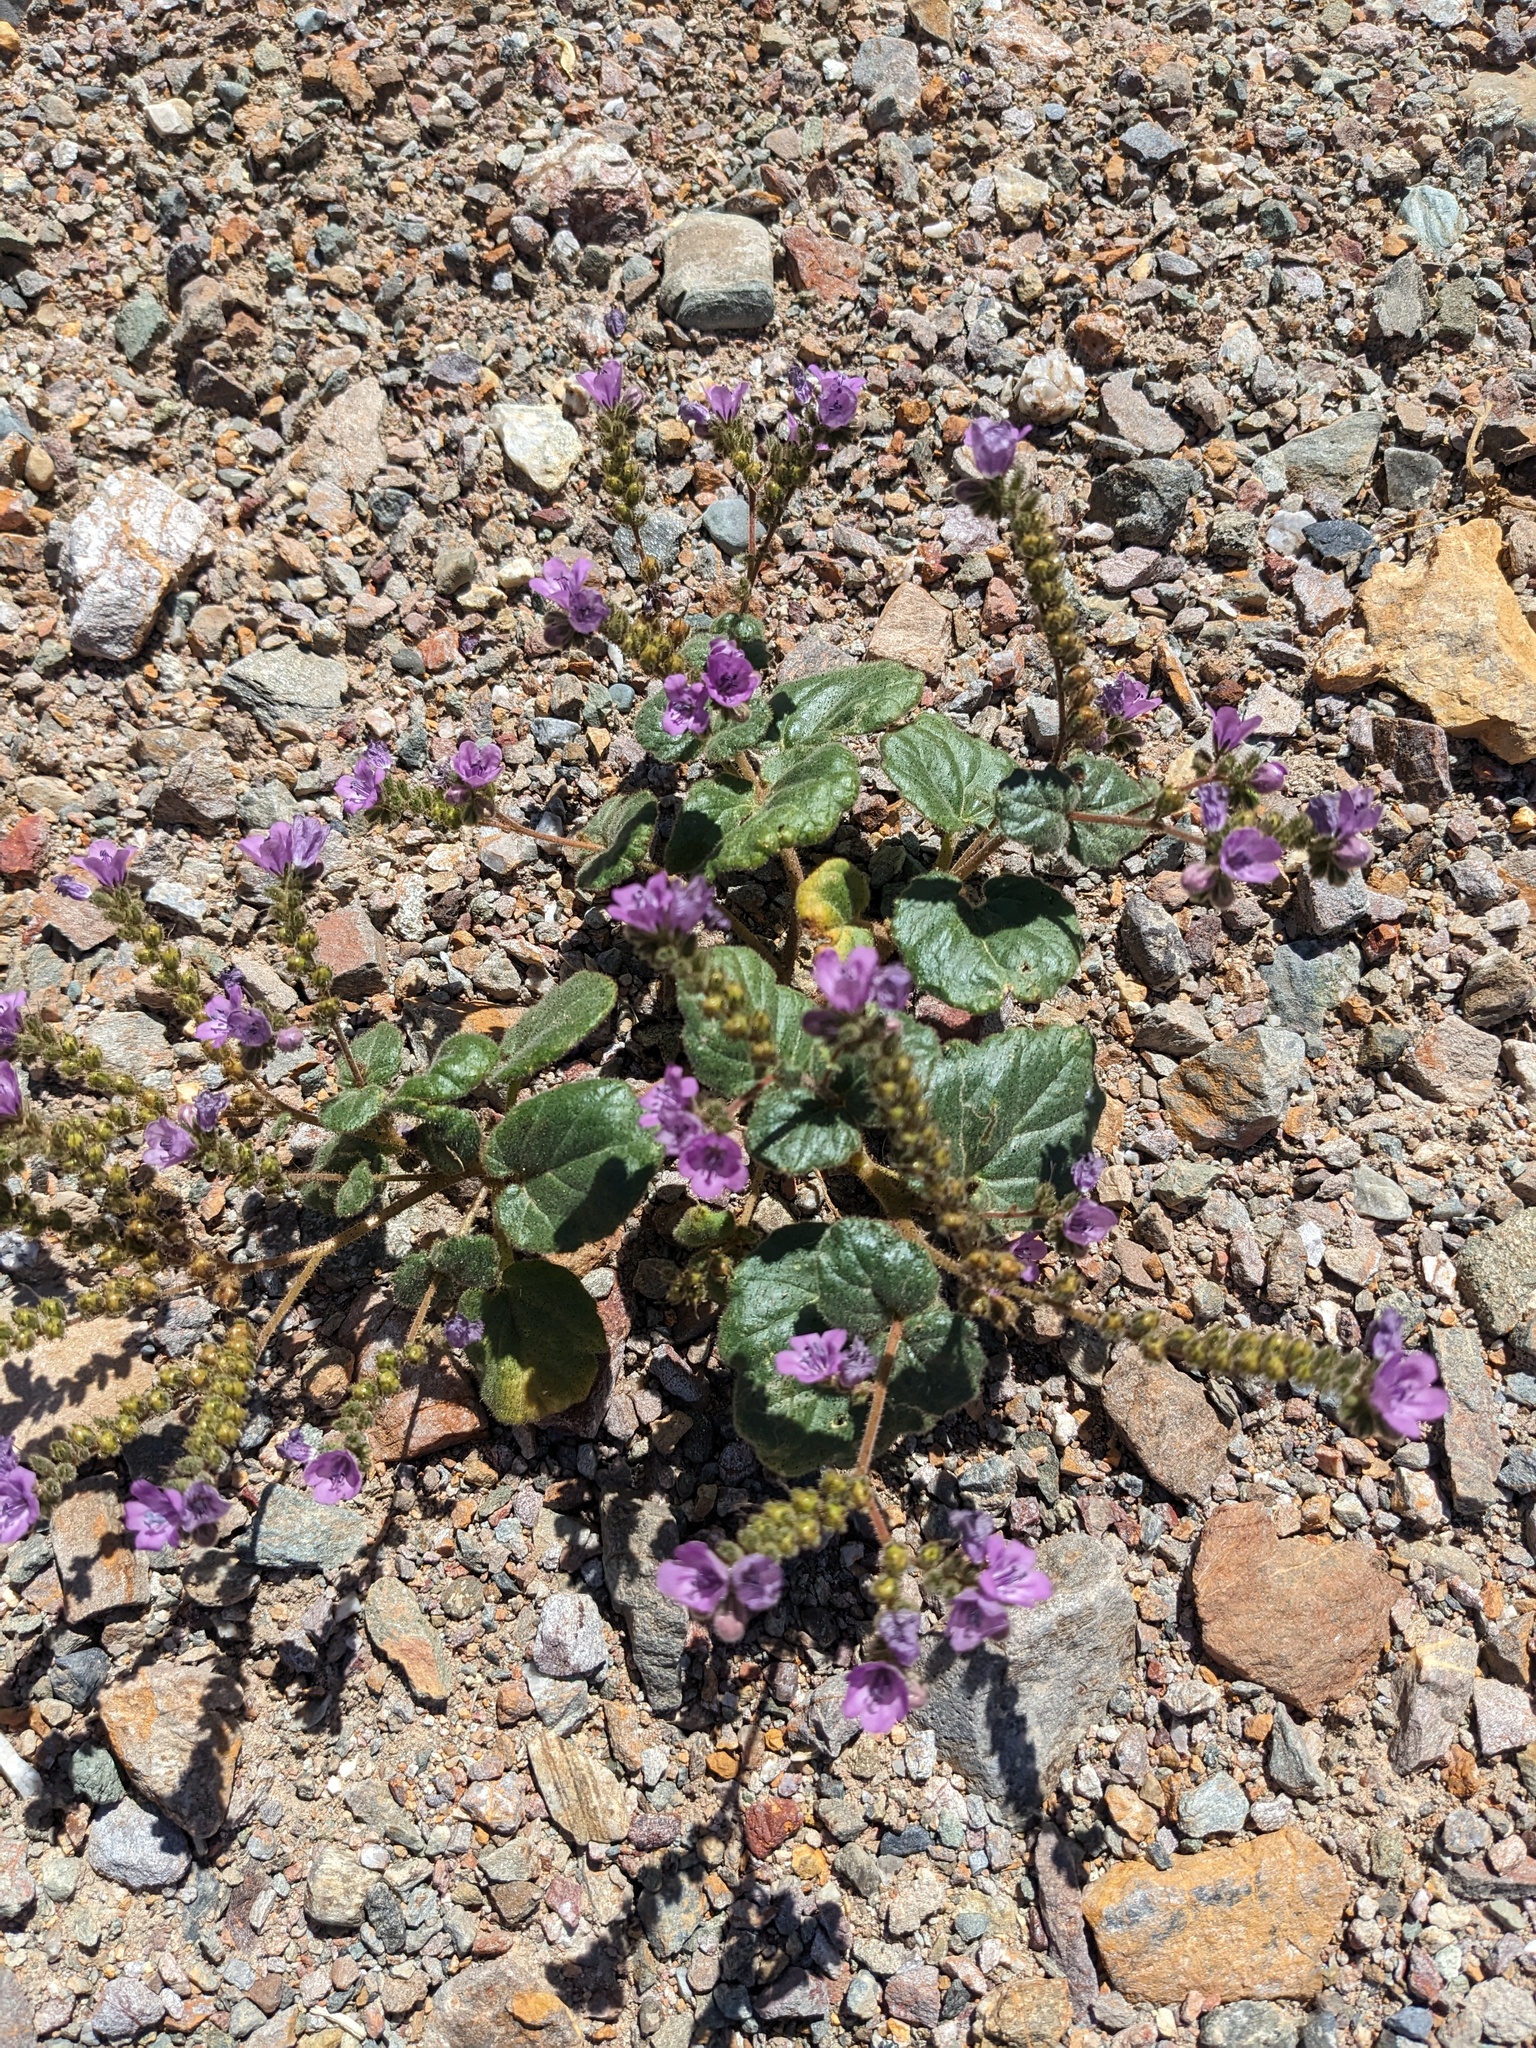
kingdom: Plantae
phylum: Tracheophyta
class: Magnoliopsida
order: Boraginales
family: Hydrophyllaceae
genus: Phacelia
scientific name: Phacelia calthifolia
